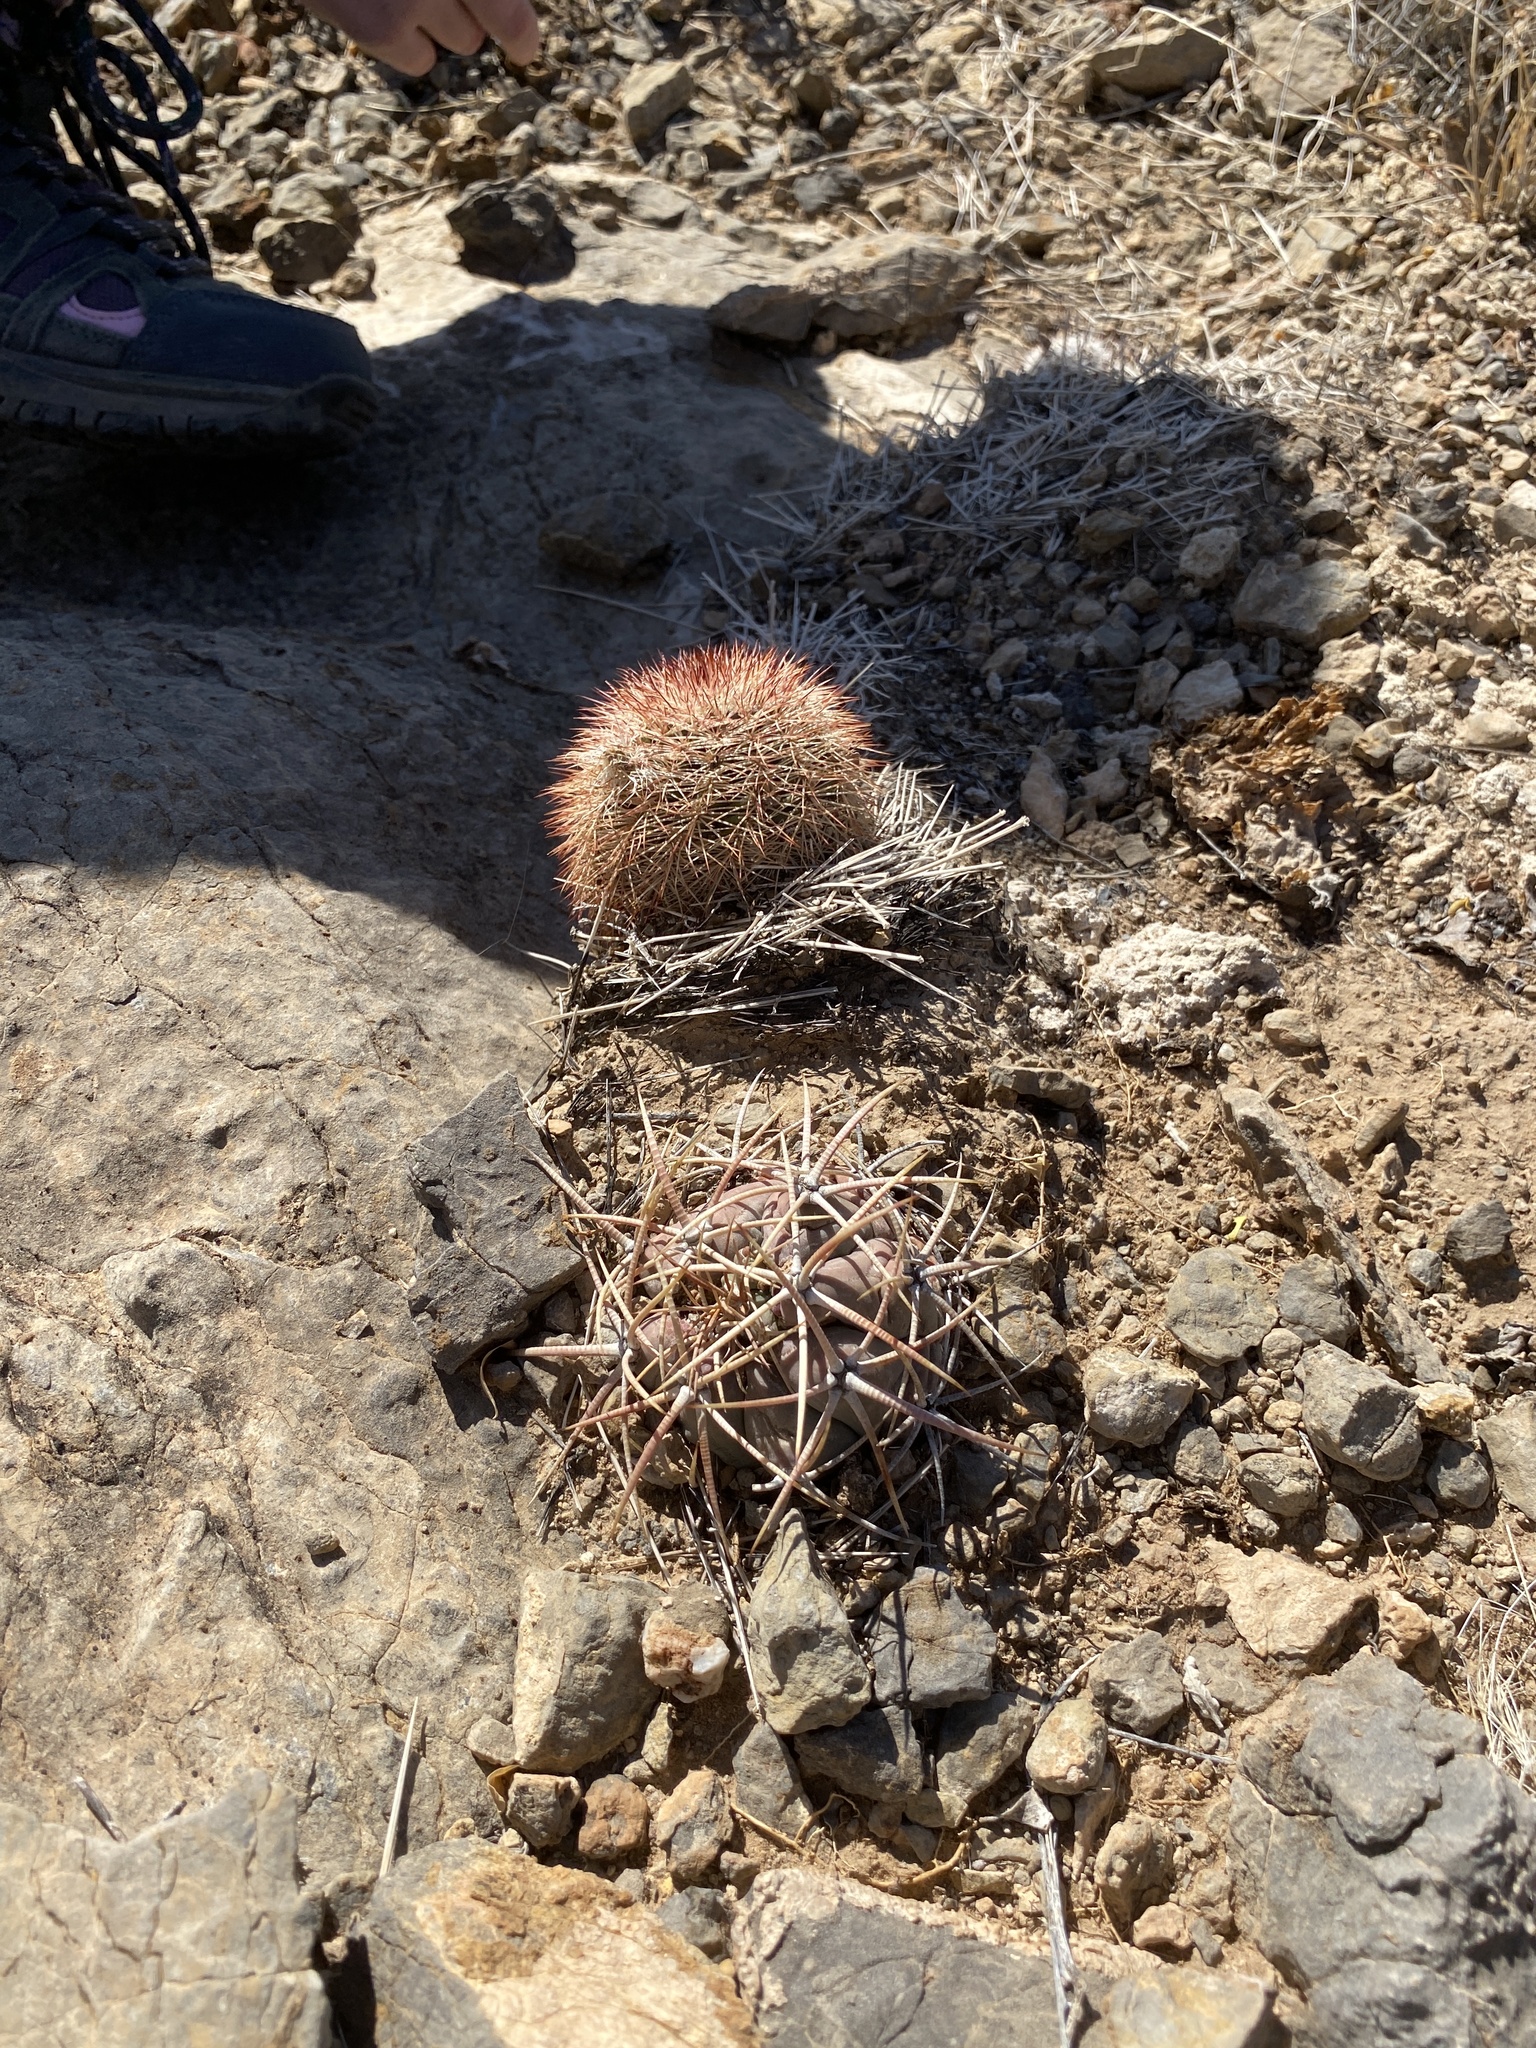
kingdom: Plantae
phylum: Tracheophyta
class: Magnoliopsida
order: Caryophyllales
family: Cactaceae
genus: Echinocereus
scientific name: Echinocereus dasyacanthus
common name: Spiny hedgehog cactus
